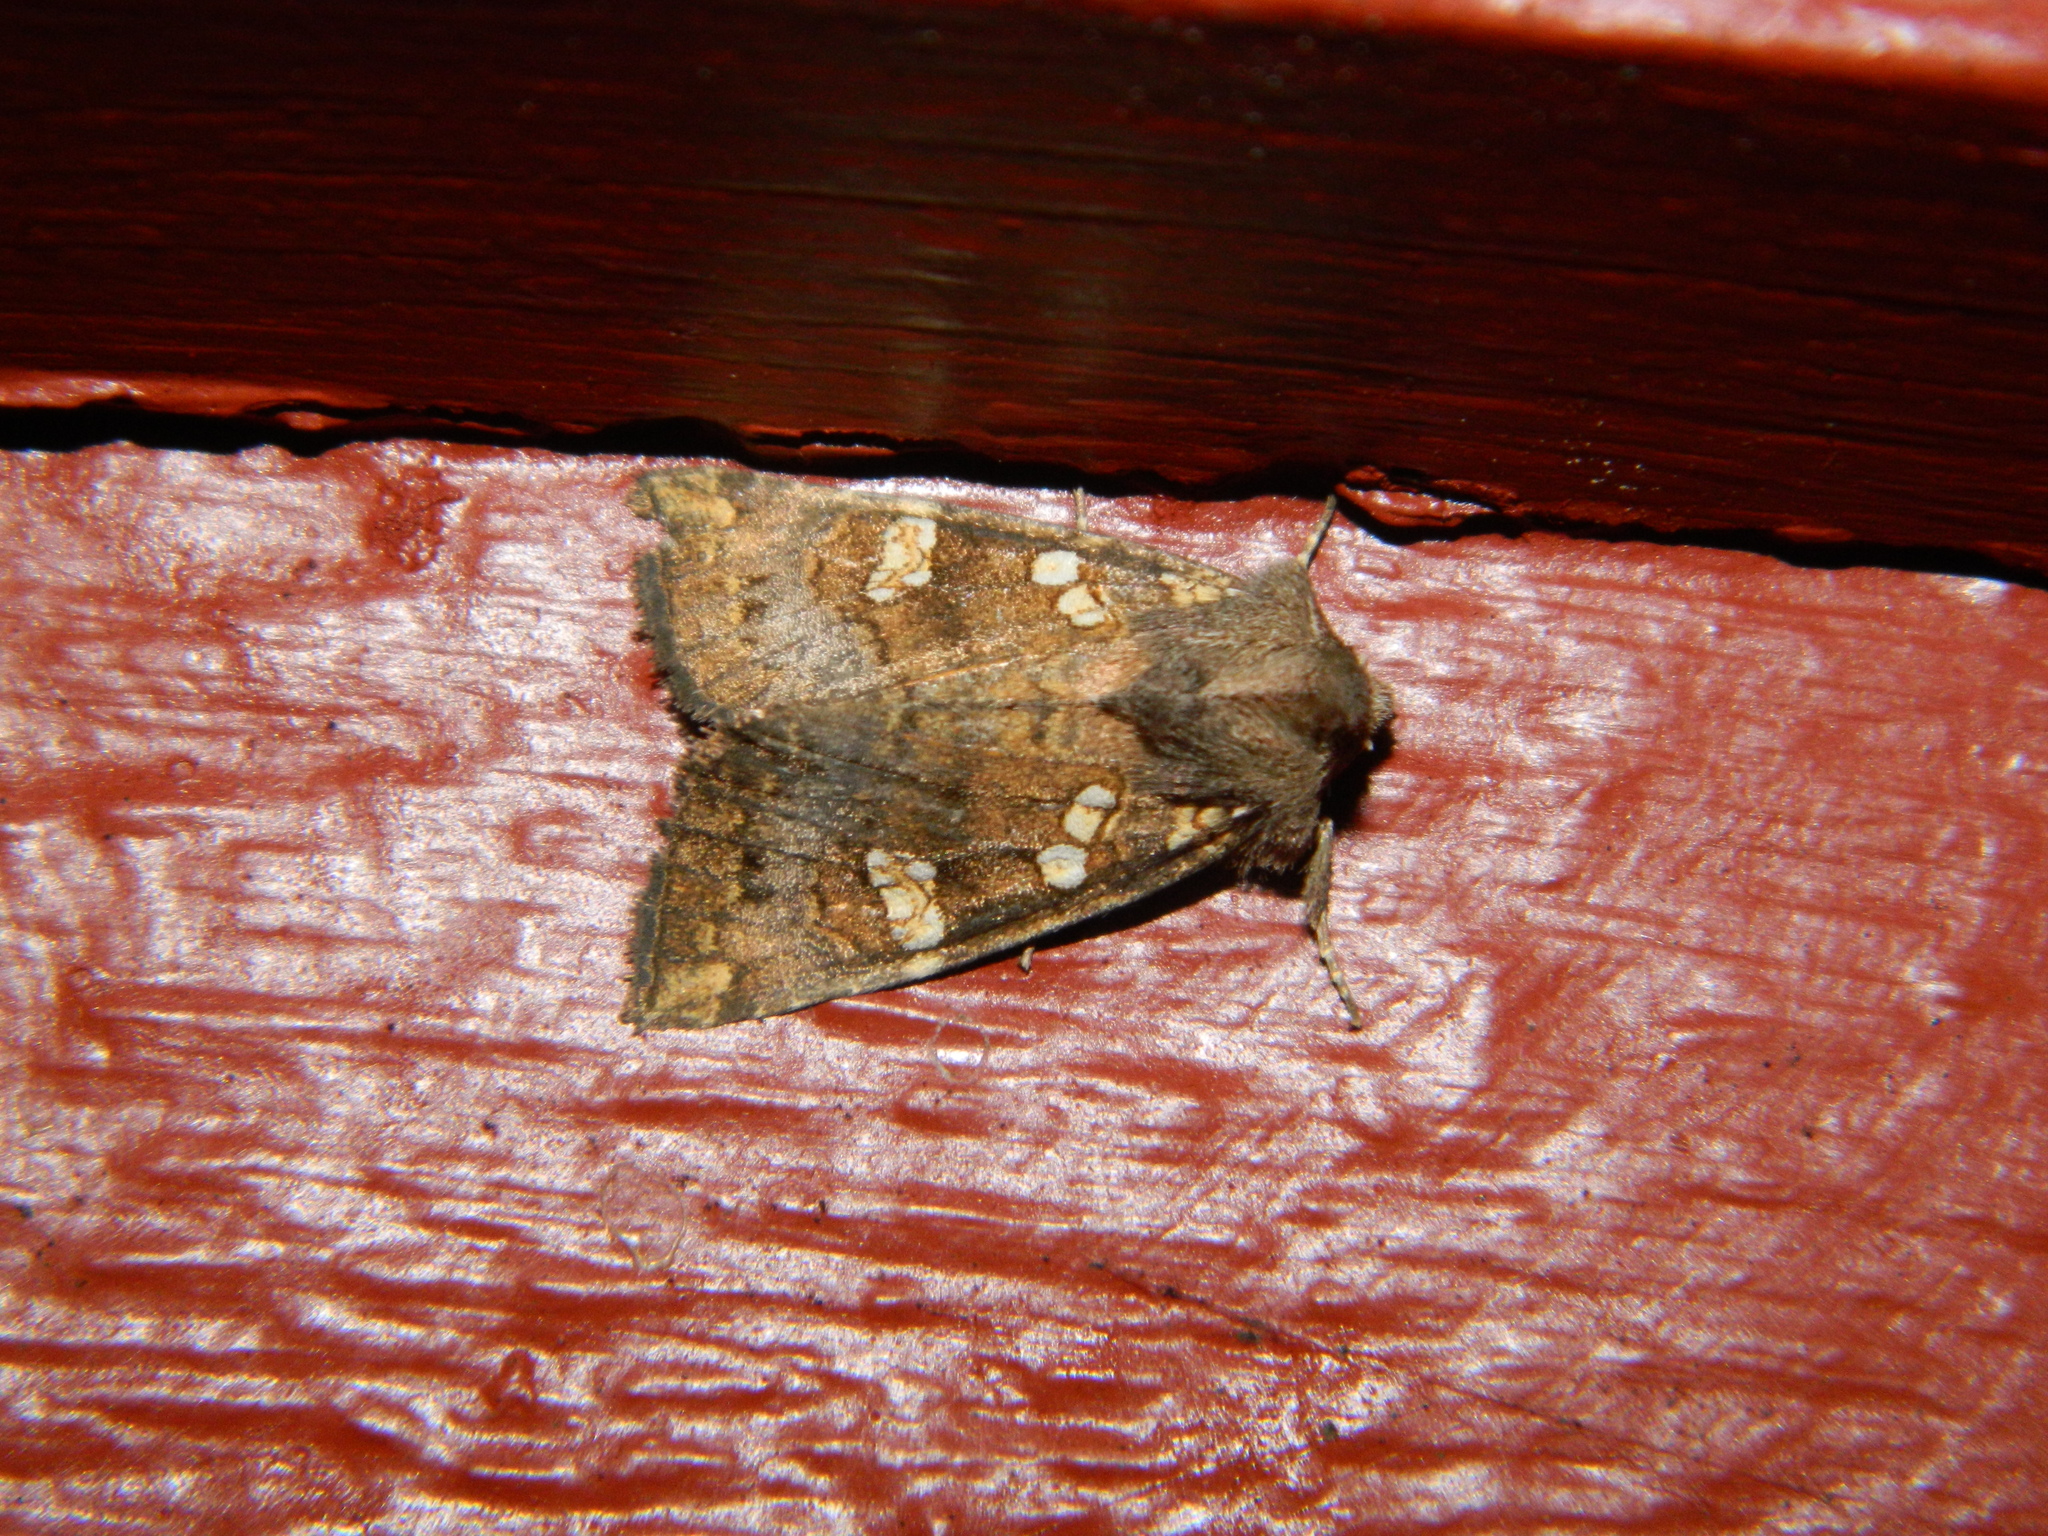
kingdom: Animalia
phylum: Arthropoda
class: Insecta
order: Lepidoptera
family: Noctuidae
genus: Papaipema
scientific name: Papaipema unimoda
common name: Meadow rue borer moth
